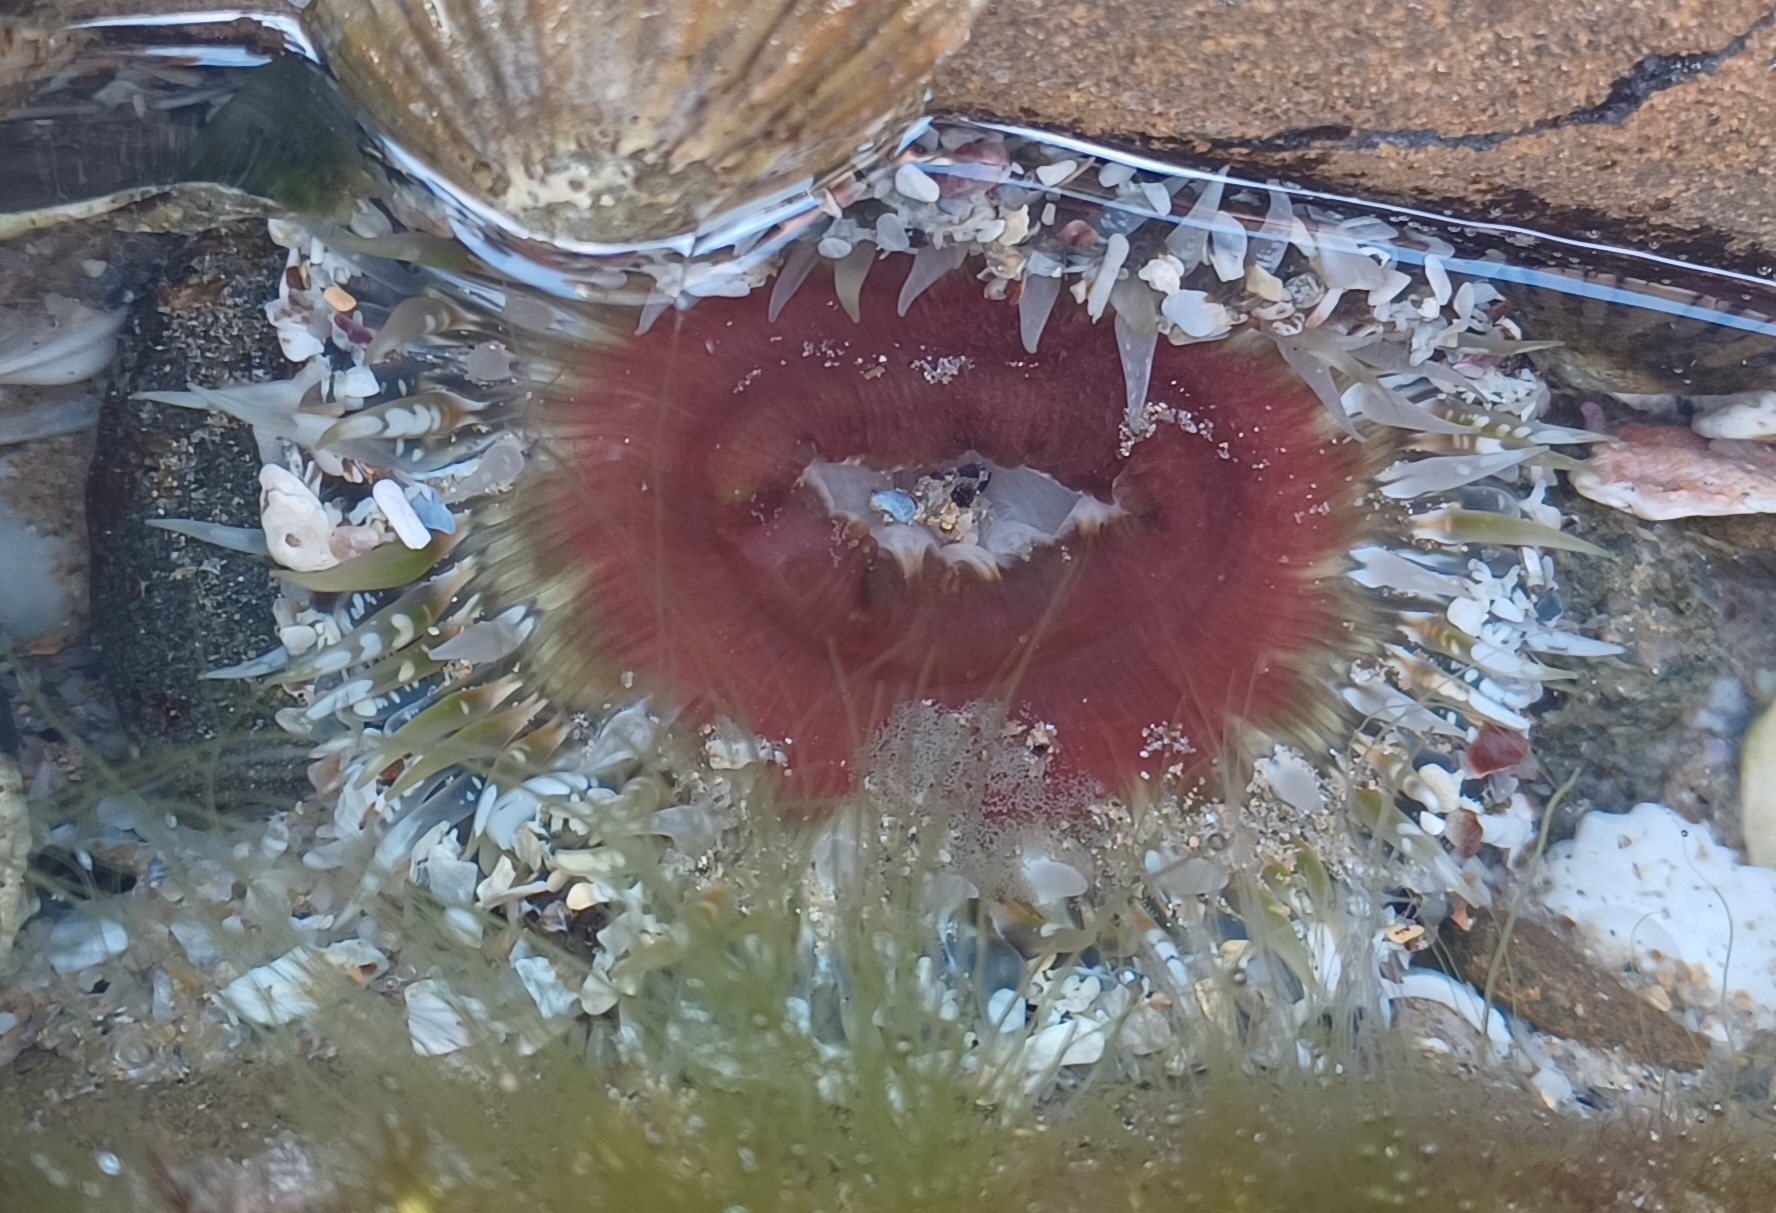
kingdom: Animalia
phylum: Cnidaria
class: Anthozoa
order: Actiniaria
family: Actiniidae
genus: Oulactis
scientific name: Oulactis muscosa
